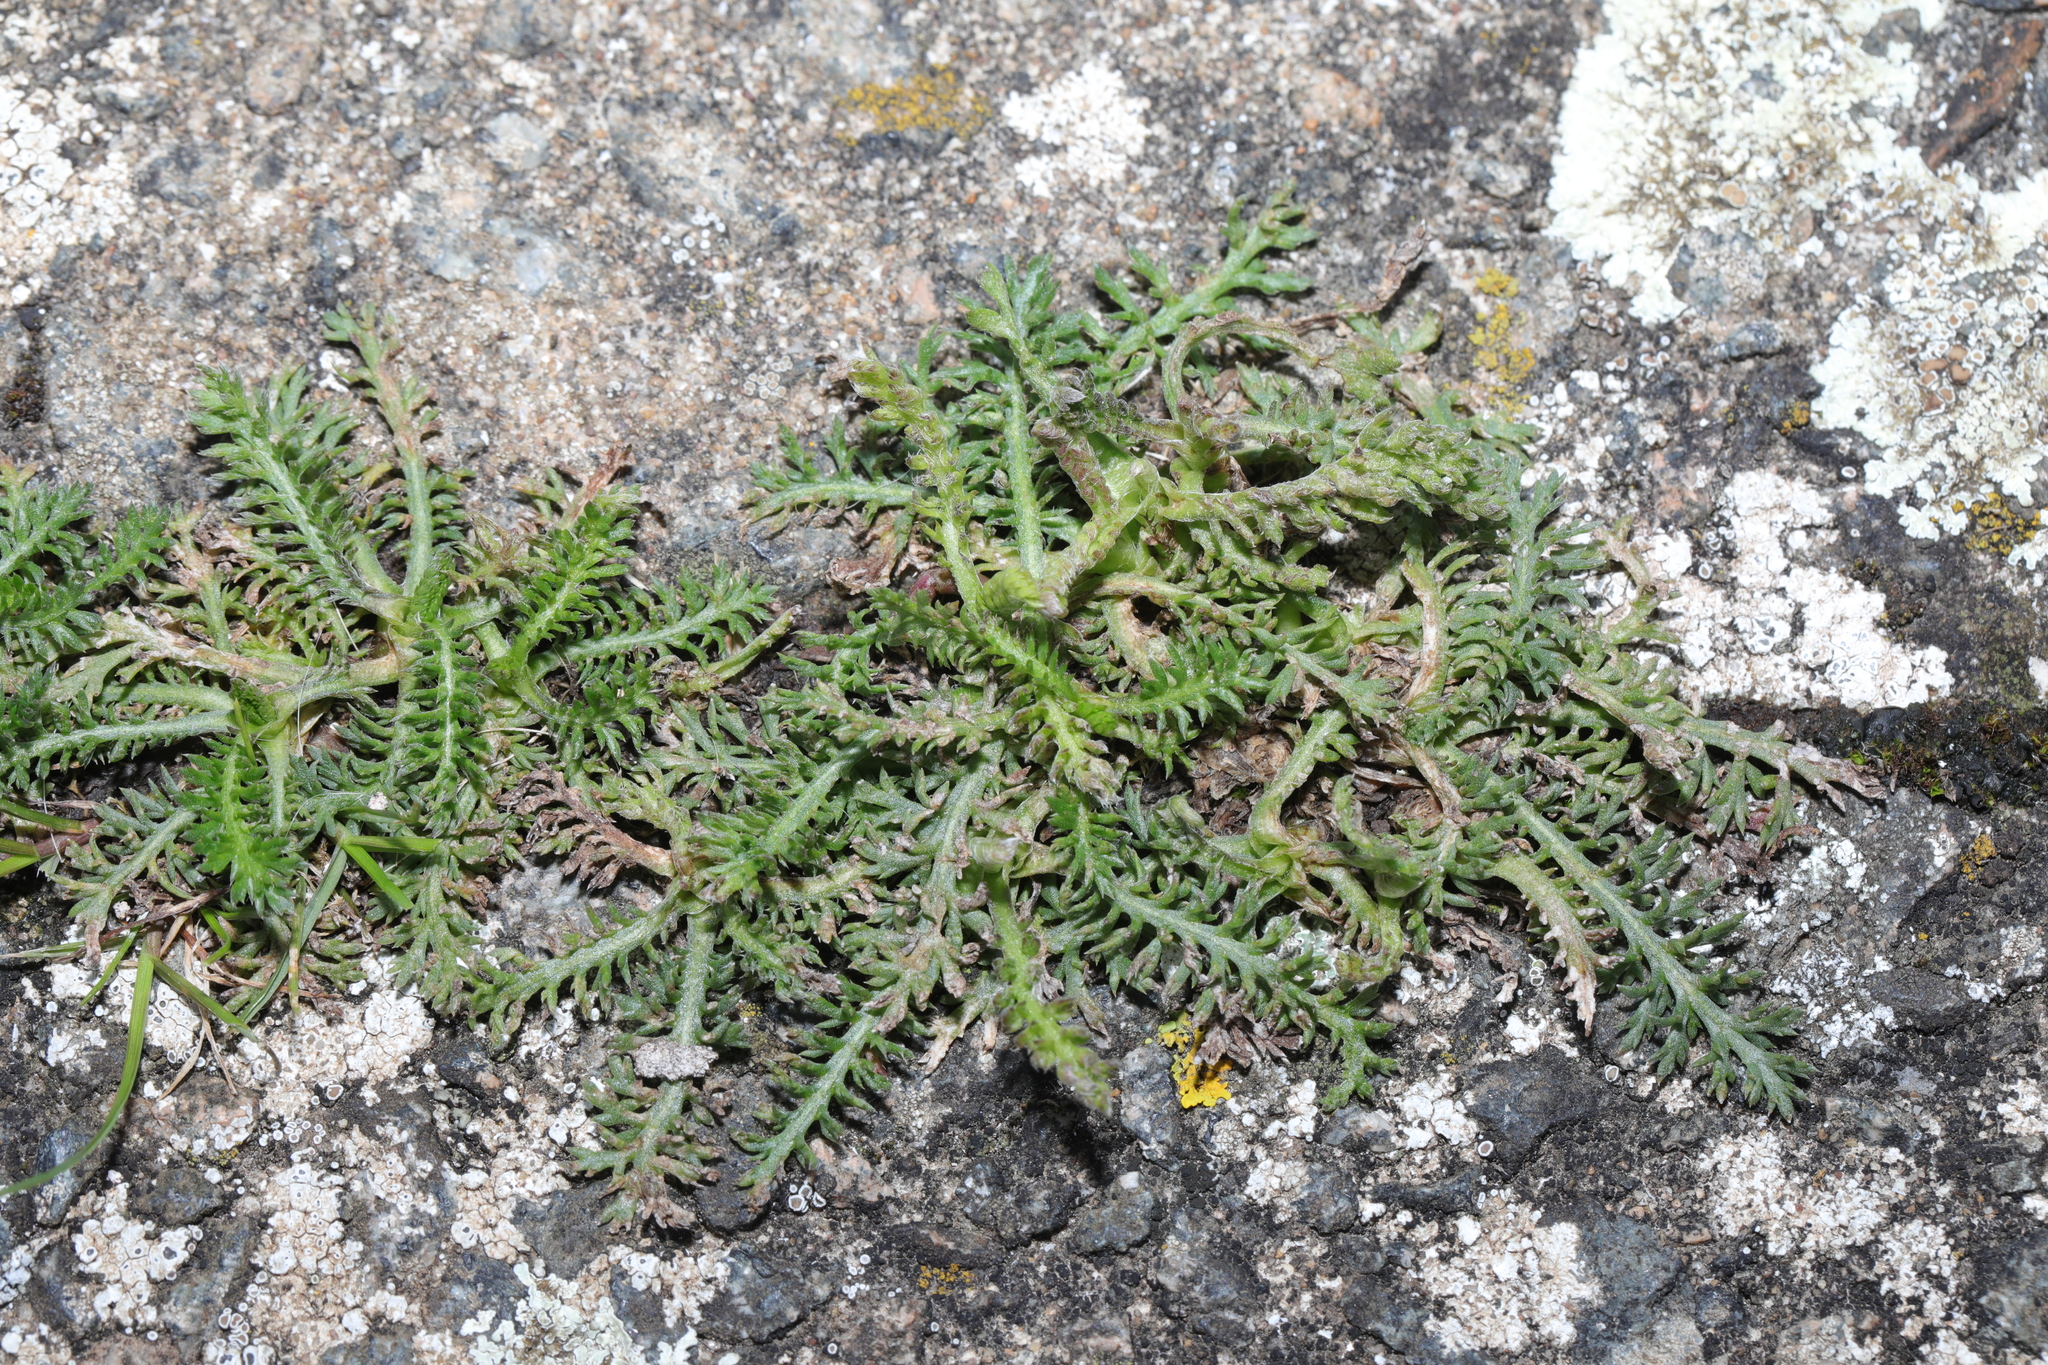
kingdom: Plantae
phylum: Tracheophyta
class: Magnoliopsida
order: Asterales
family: Asteraceae
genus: Achillea
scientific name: Achillea millefolium
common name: Yarrow
